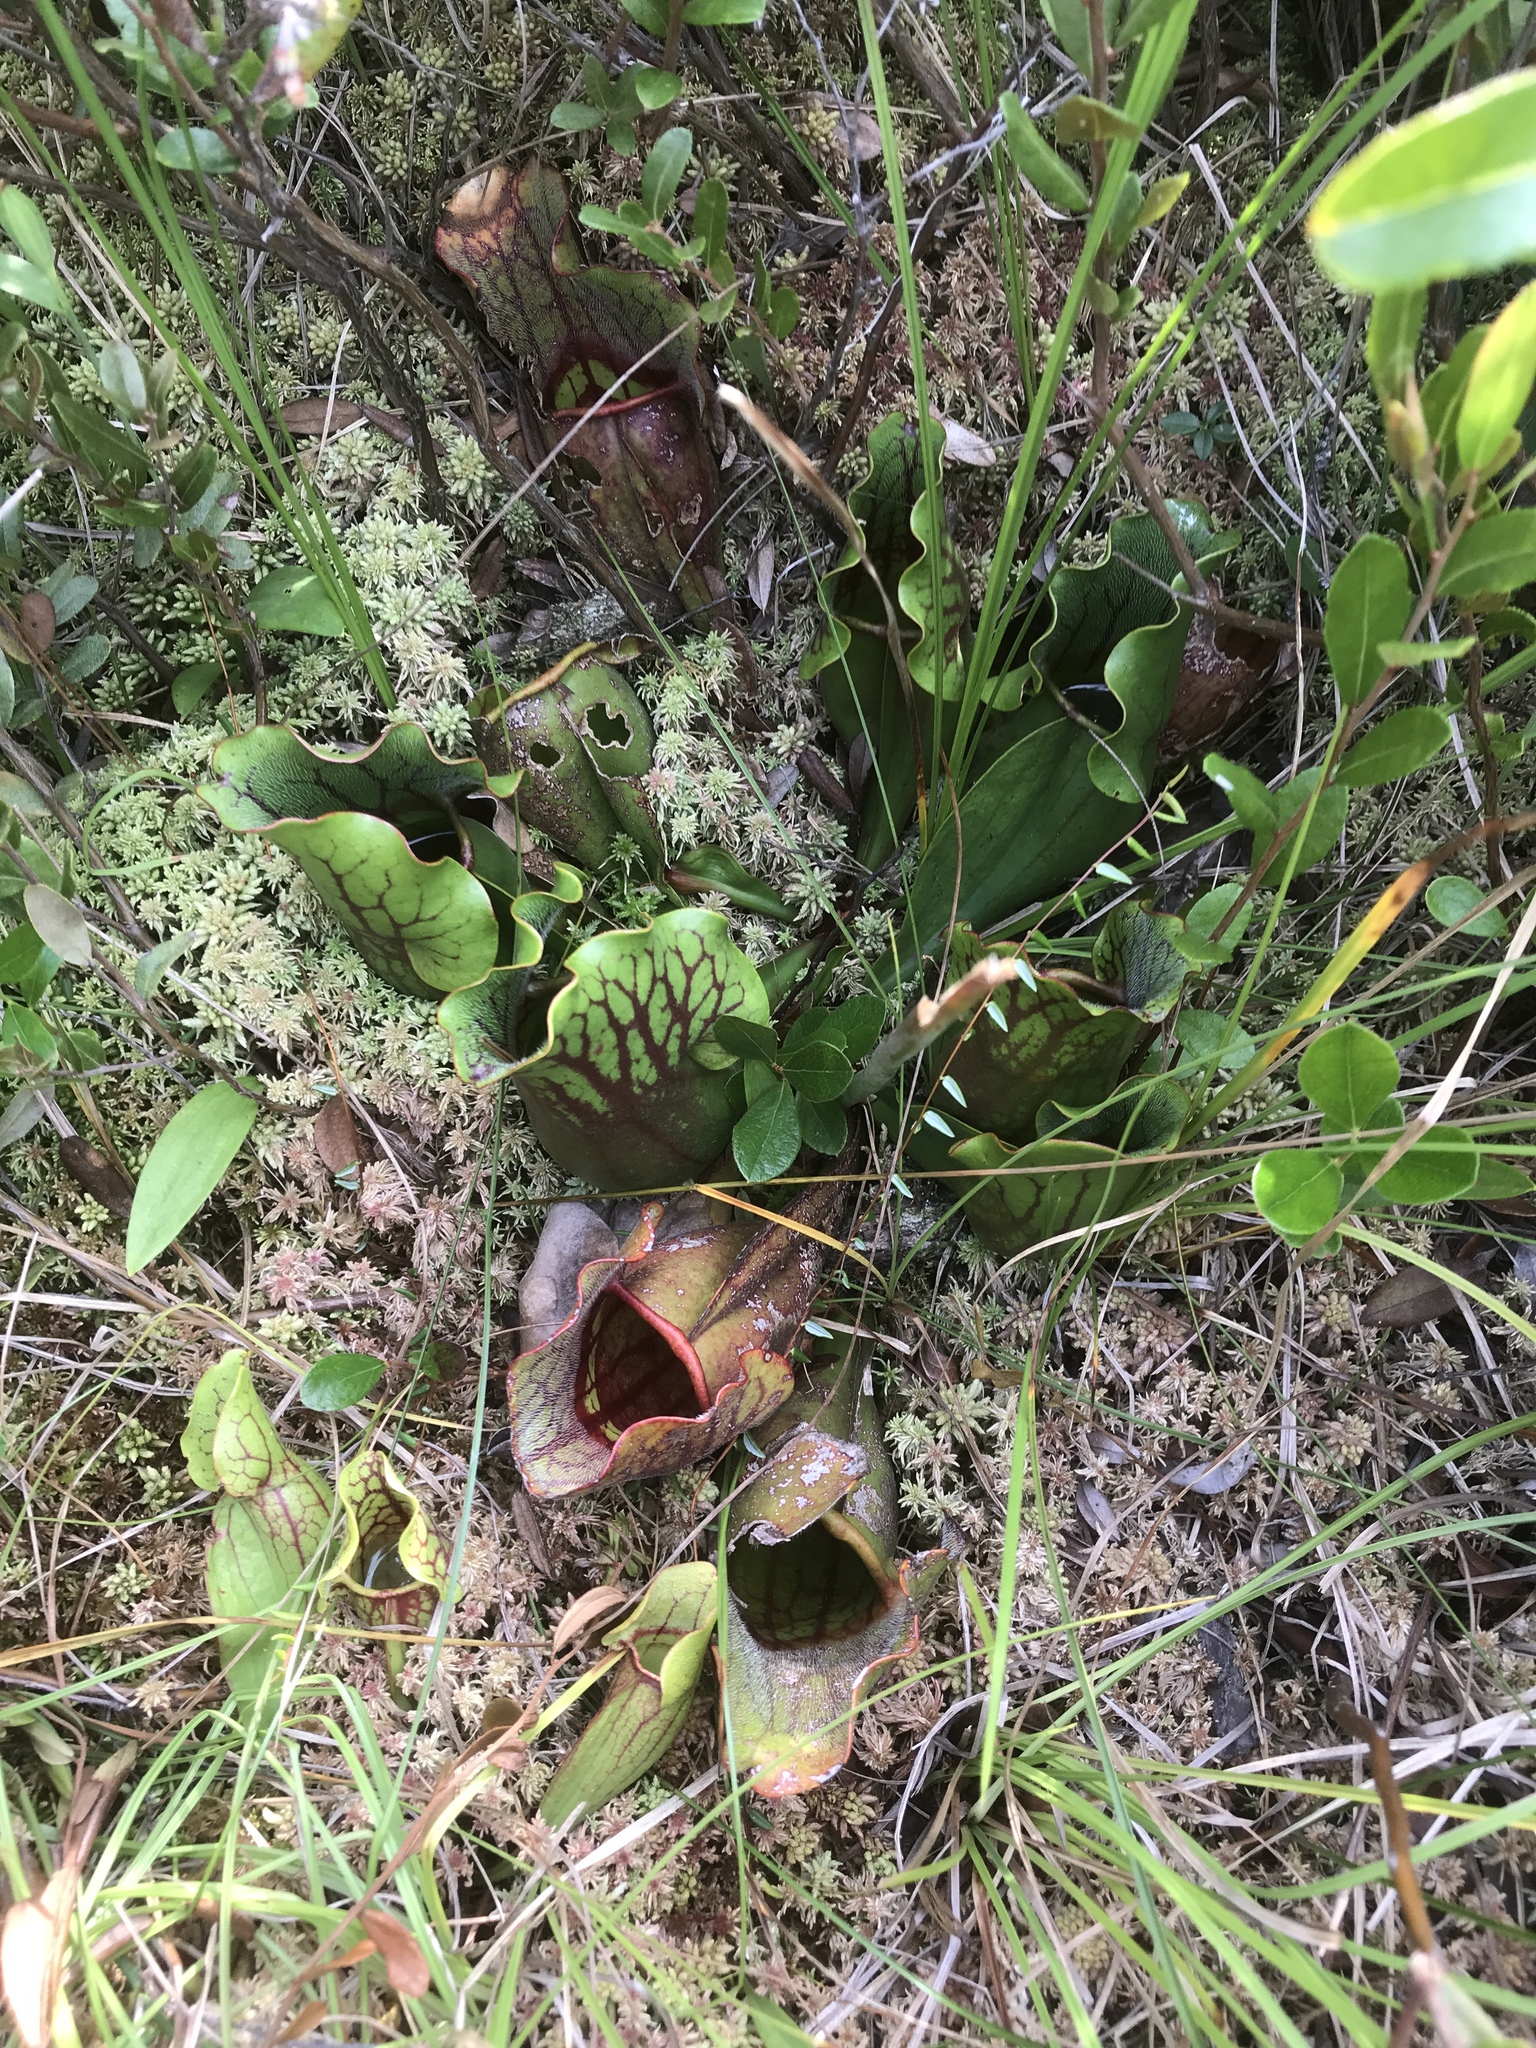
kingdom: Plantae
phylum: Tracheophyta
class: Magnoliopsida
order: Ericales
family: Sarraceniaceae
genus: Sarracenia
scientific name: Sarracenia purpurea
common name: Pitcherplant
